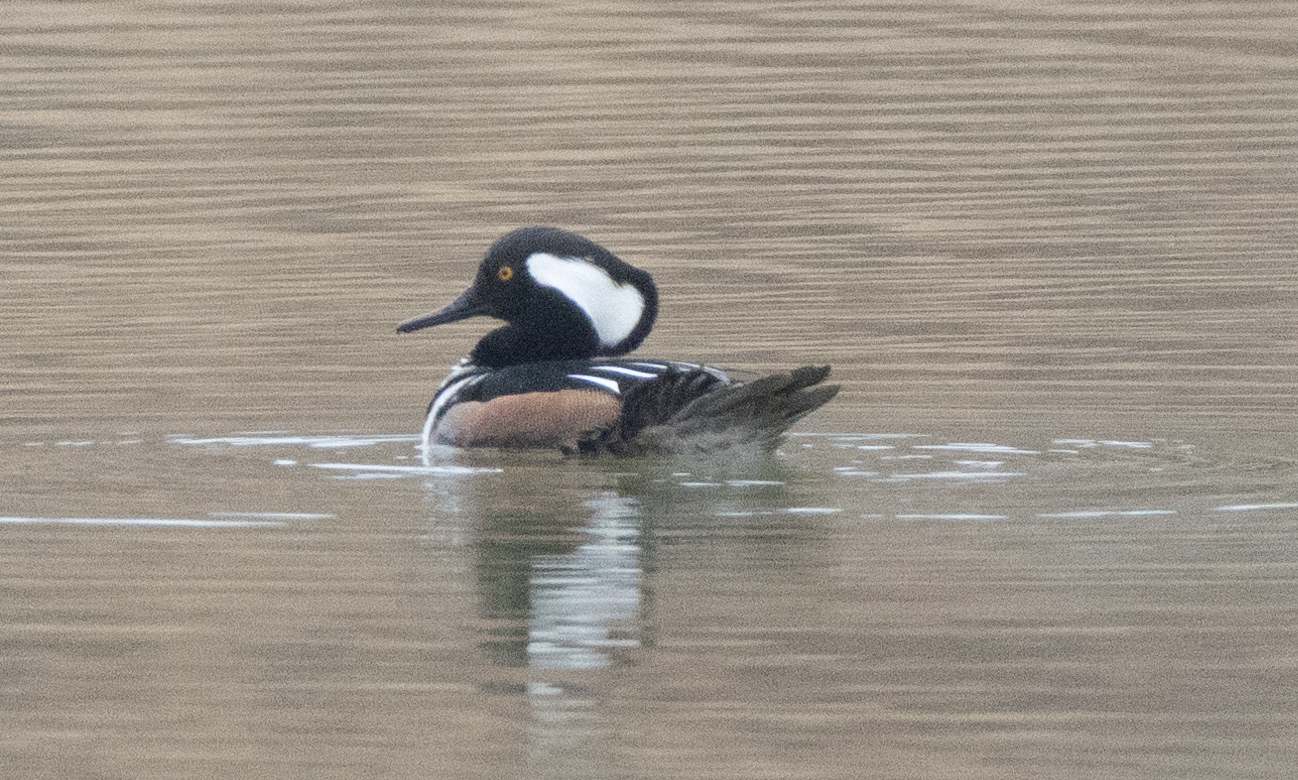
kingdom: Animalia
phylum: Chordata
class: Aves
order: Anseriformes
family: Anatidae
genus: Lophodytes
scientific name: Lophodytes cucullatus
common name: Hooded merganser
